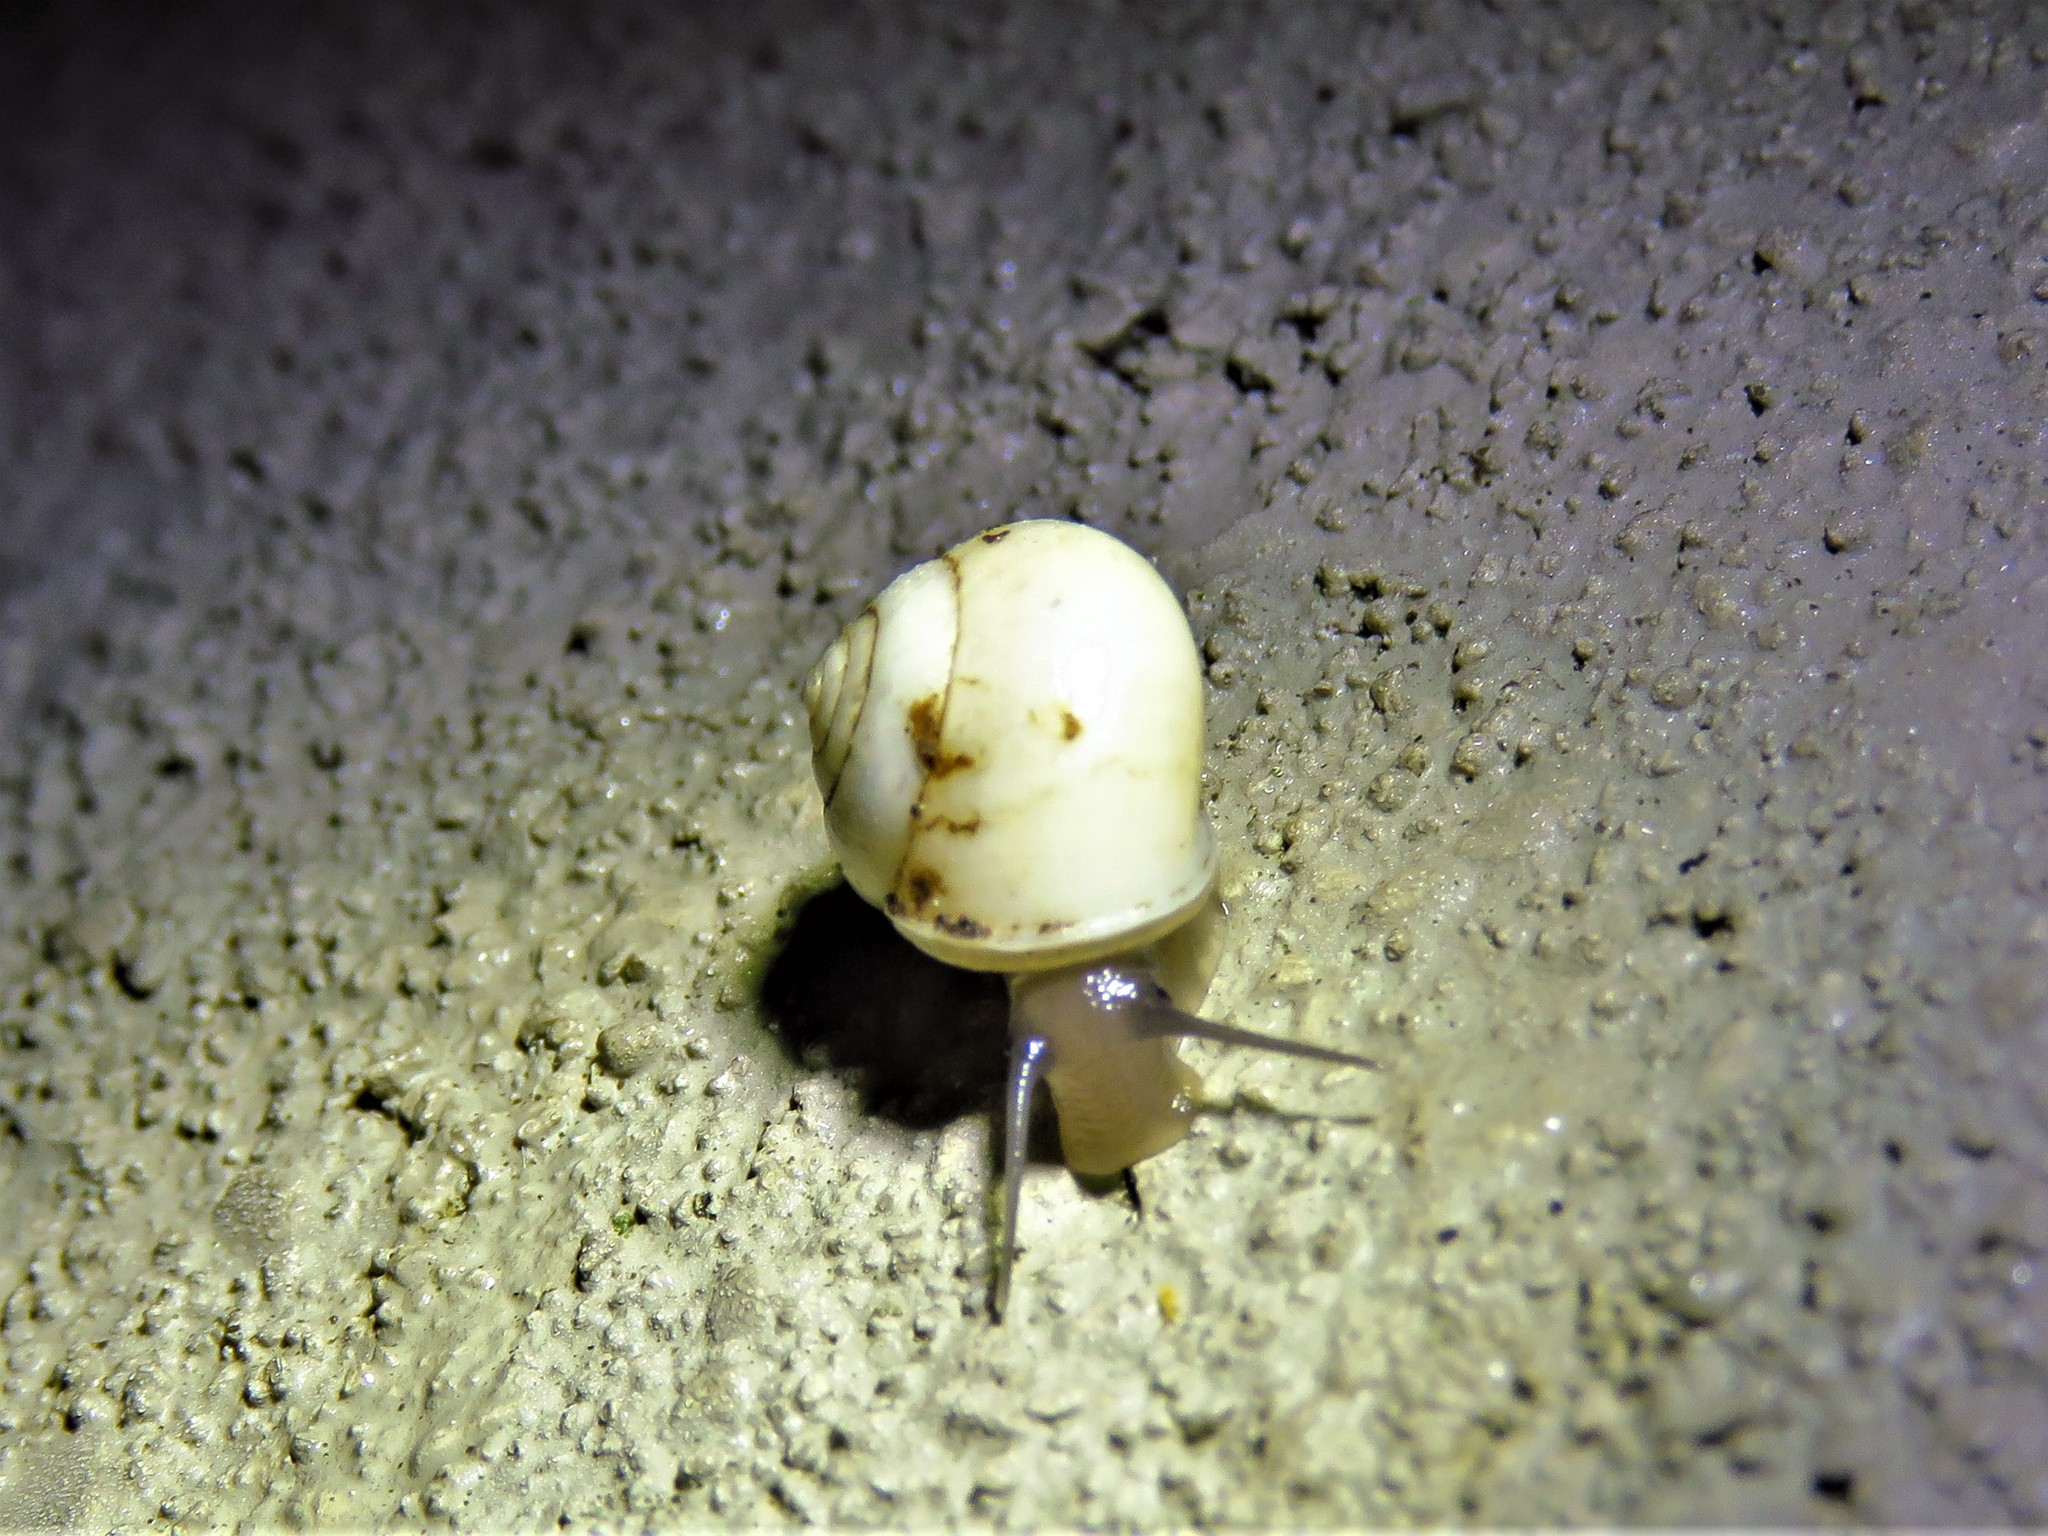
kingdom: Animalia
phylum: Mollusca
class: Gastropoda
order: Cycloneritida
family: Helicinidae
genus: Helicina
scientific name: Helicina orbiculata
